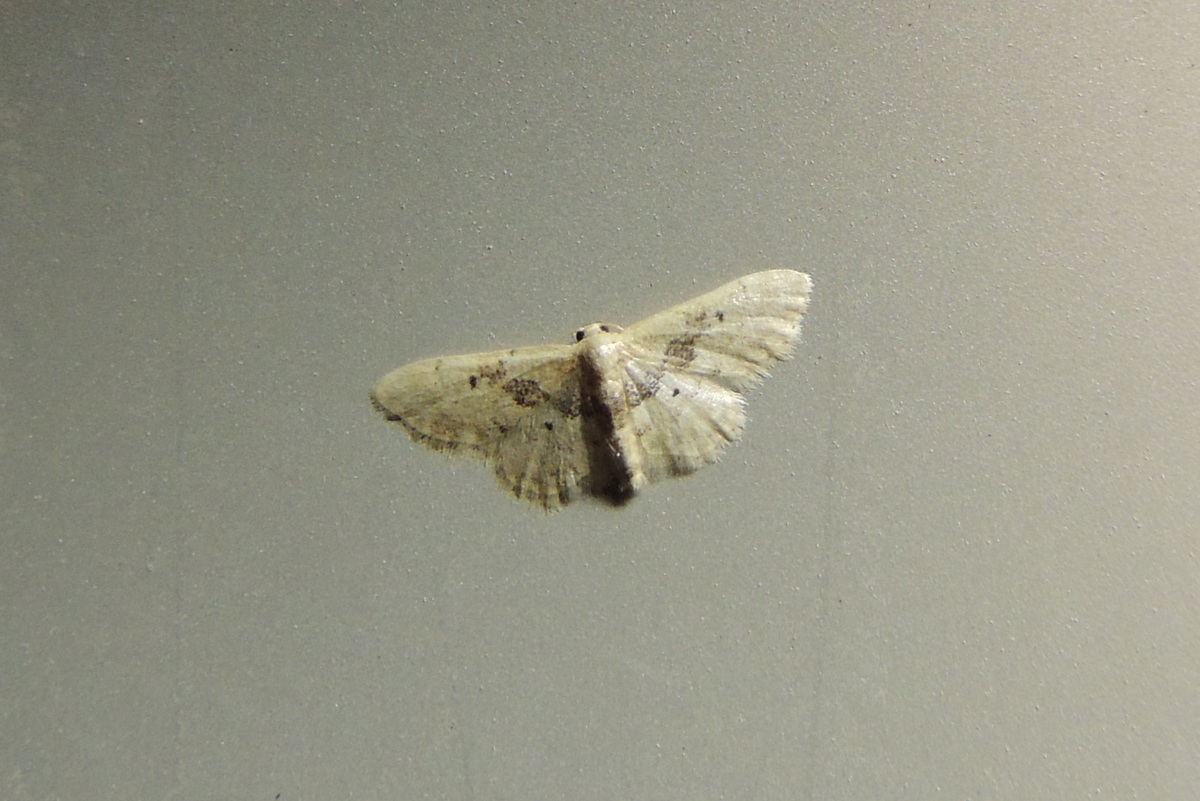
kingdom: Animalia
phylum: Arthropoda
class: Insecta
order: Lepidoptera
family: Geometridae
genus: Idaea
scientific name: Idaea intermedia
